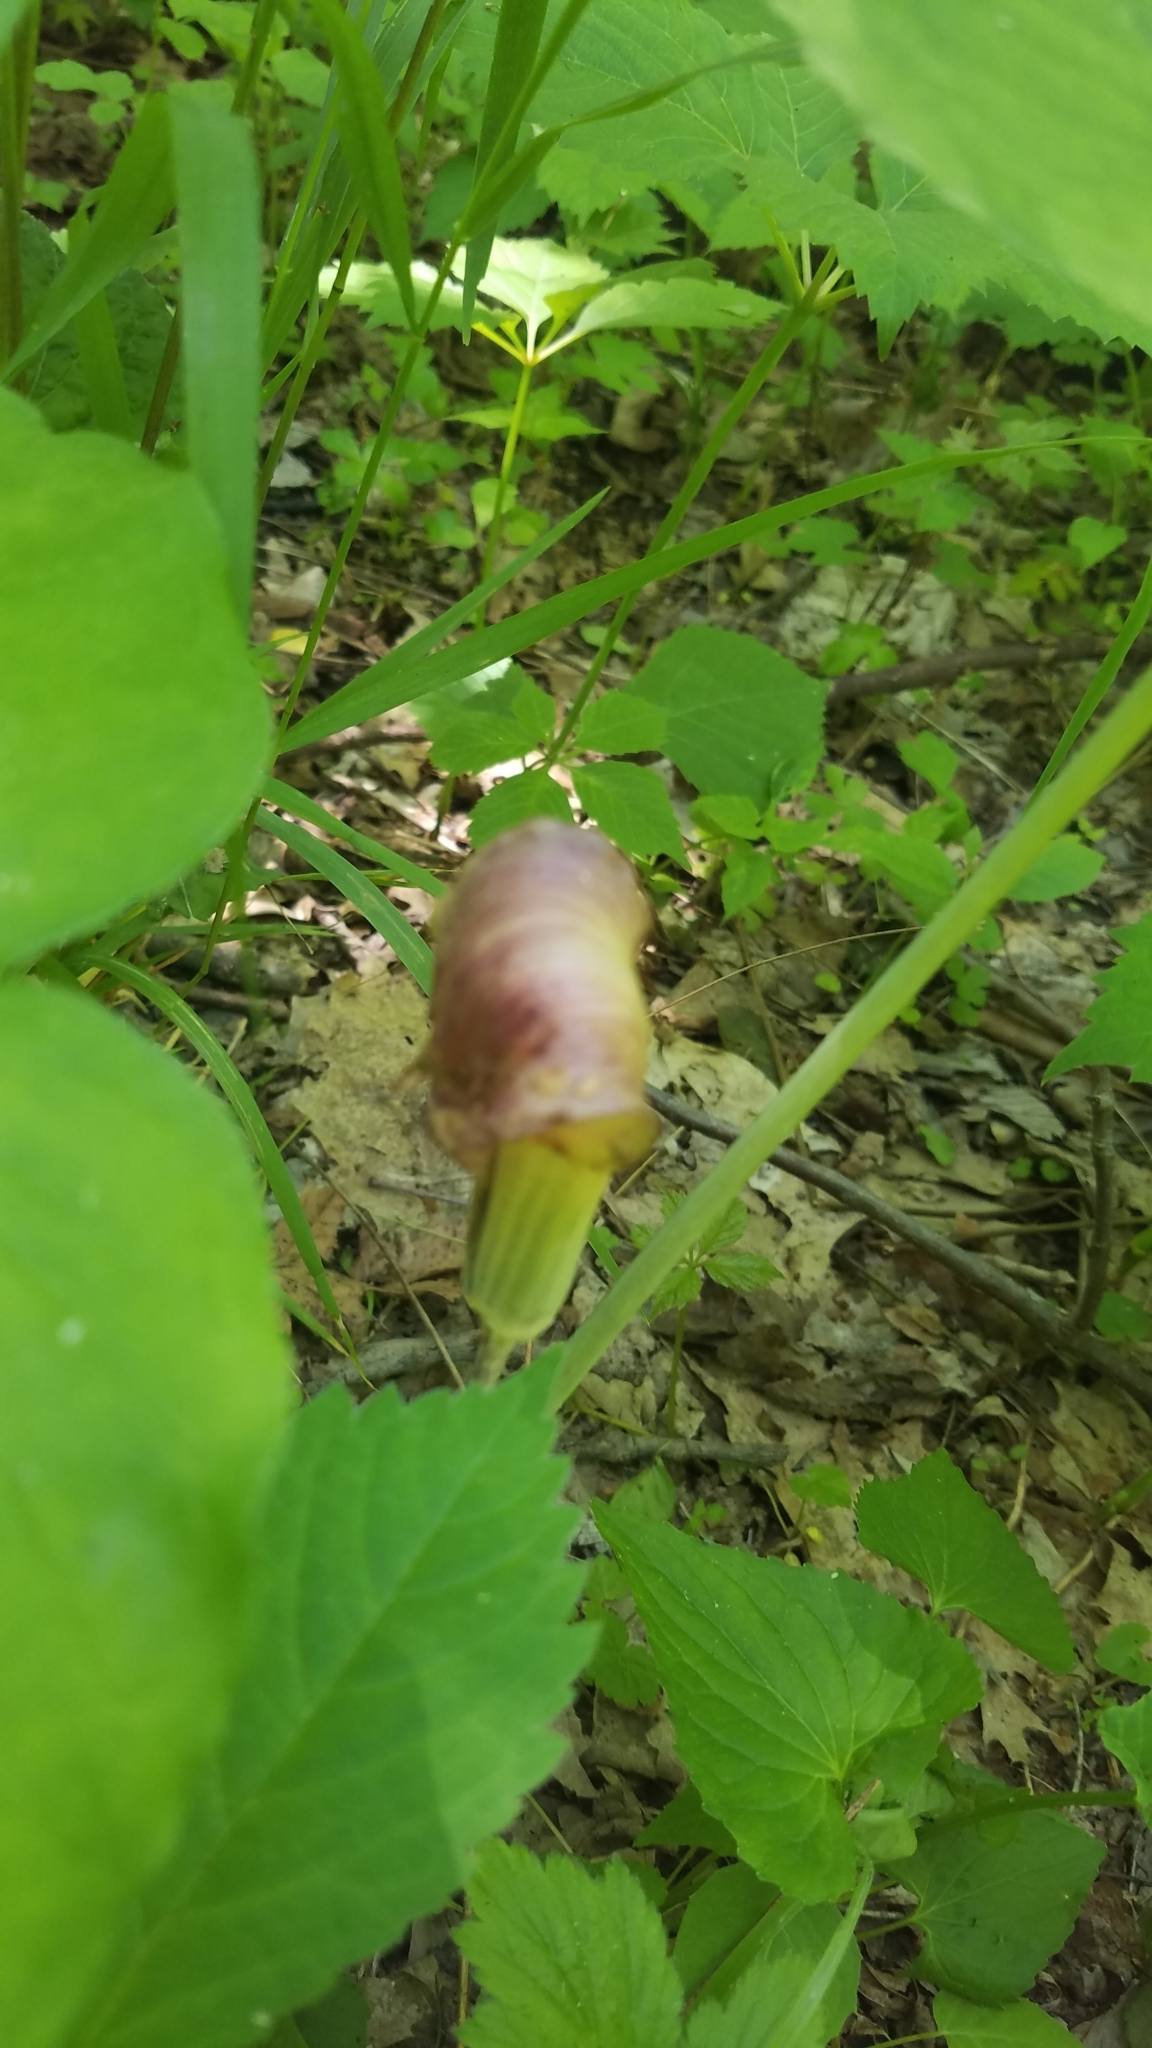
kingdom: Plantae
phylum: Tracheophyta
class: Liliopsida
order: Alismatales
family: Araceae
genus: Arisaema
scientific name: Arisaema triphyllum
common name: Jack-in-the-pulpit
